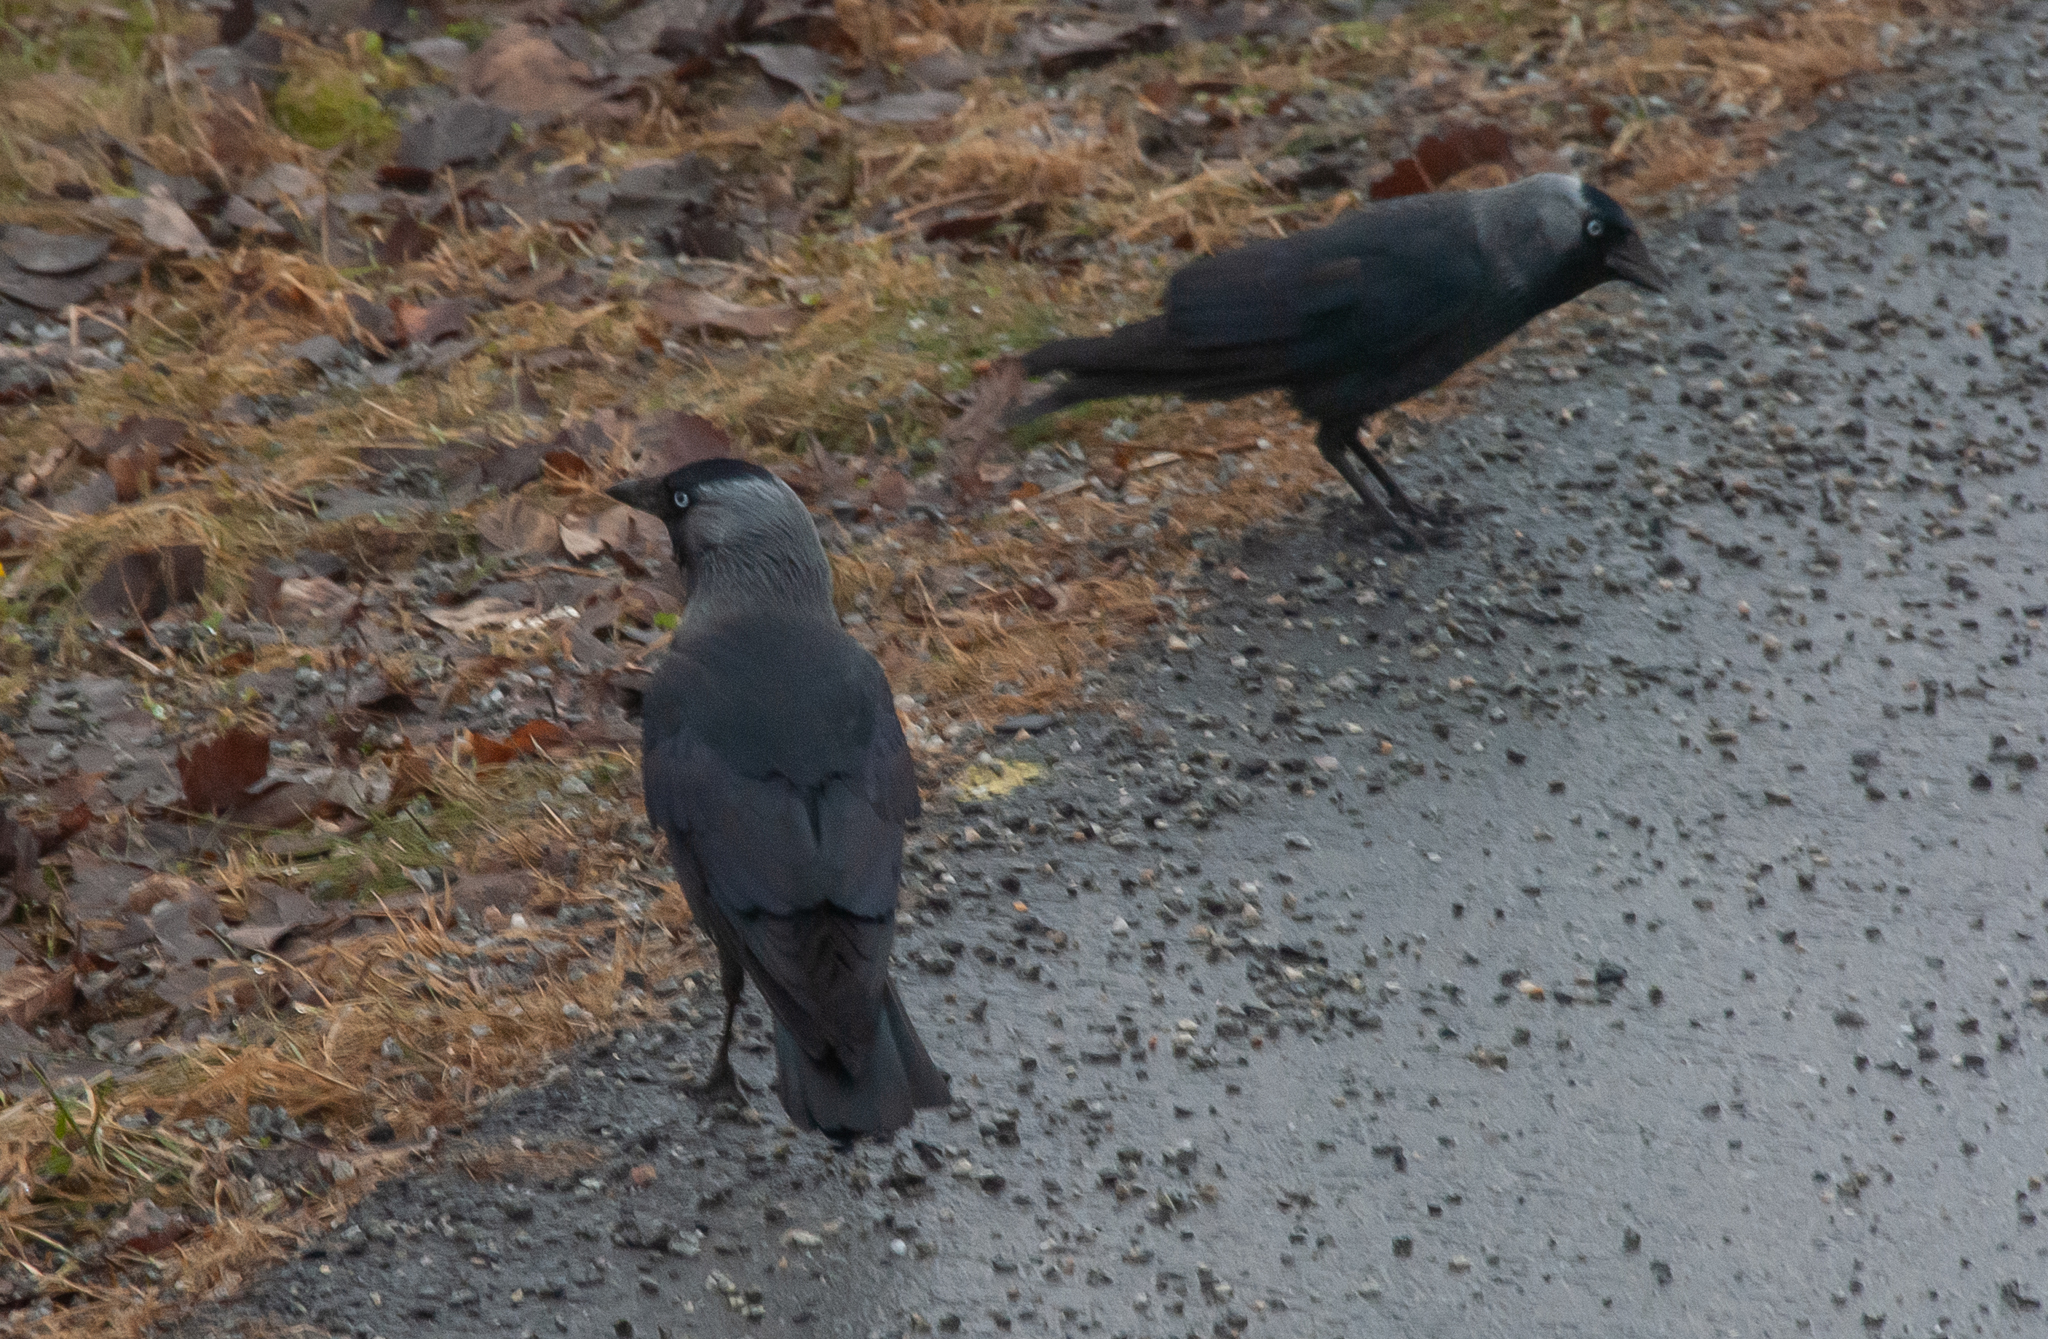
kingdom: Animalia
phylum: Chordata
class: Aves
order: Passeriformes
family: Corvidae
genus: Coloeus
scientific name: Coloeus monedula
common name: Western jackdaw
